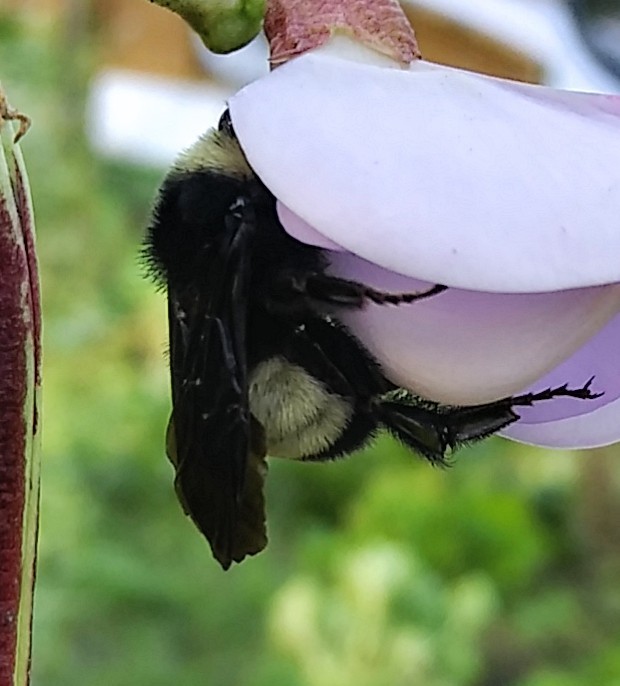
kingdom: Animalia
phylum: Arthropoda
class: Insecta
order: Hymenoptera
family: Apidae
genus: Bombus
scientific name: Bombus pensylvanicus
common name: Bumble bee
